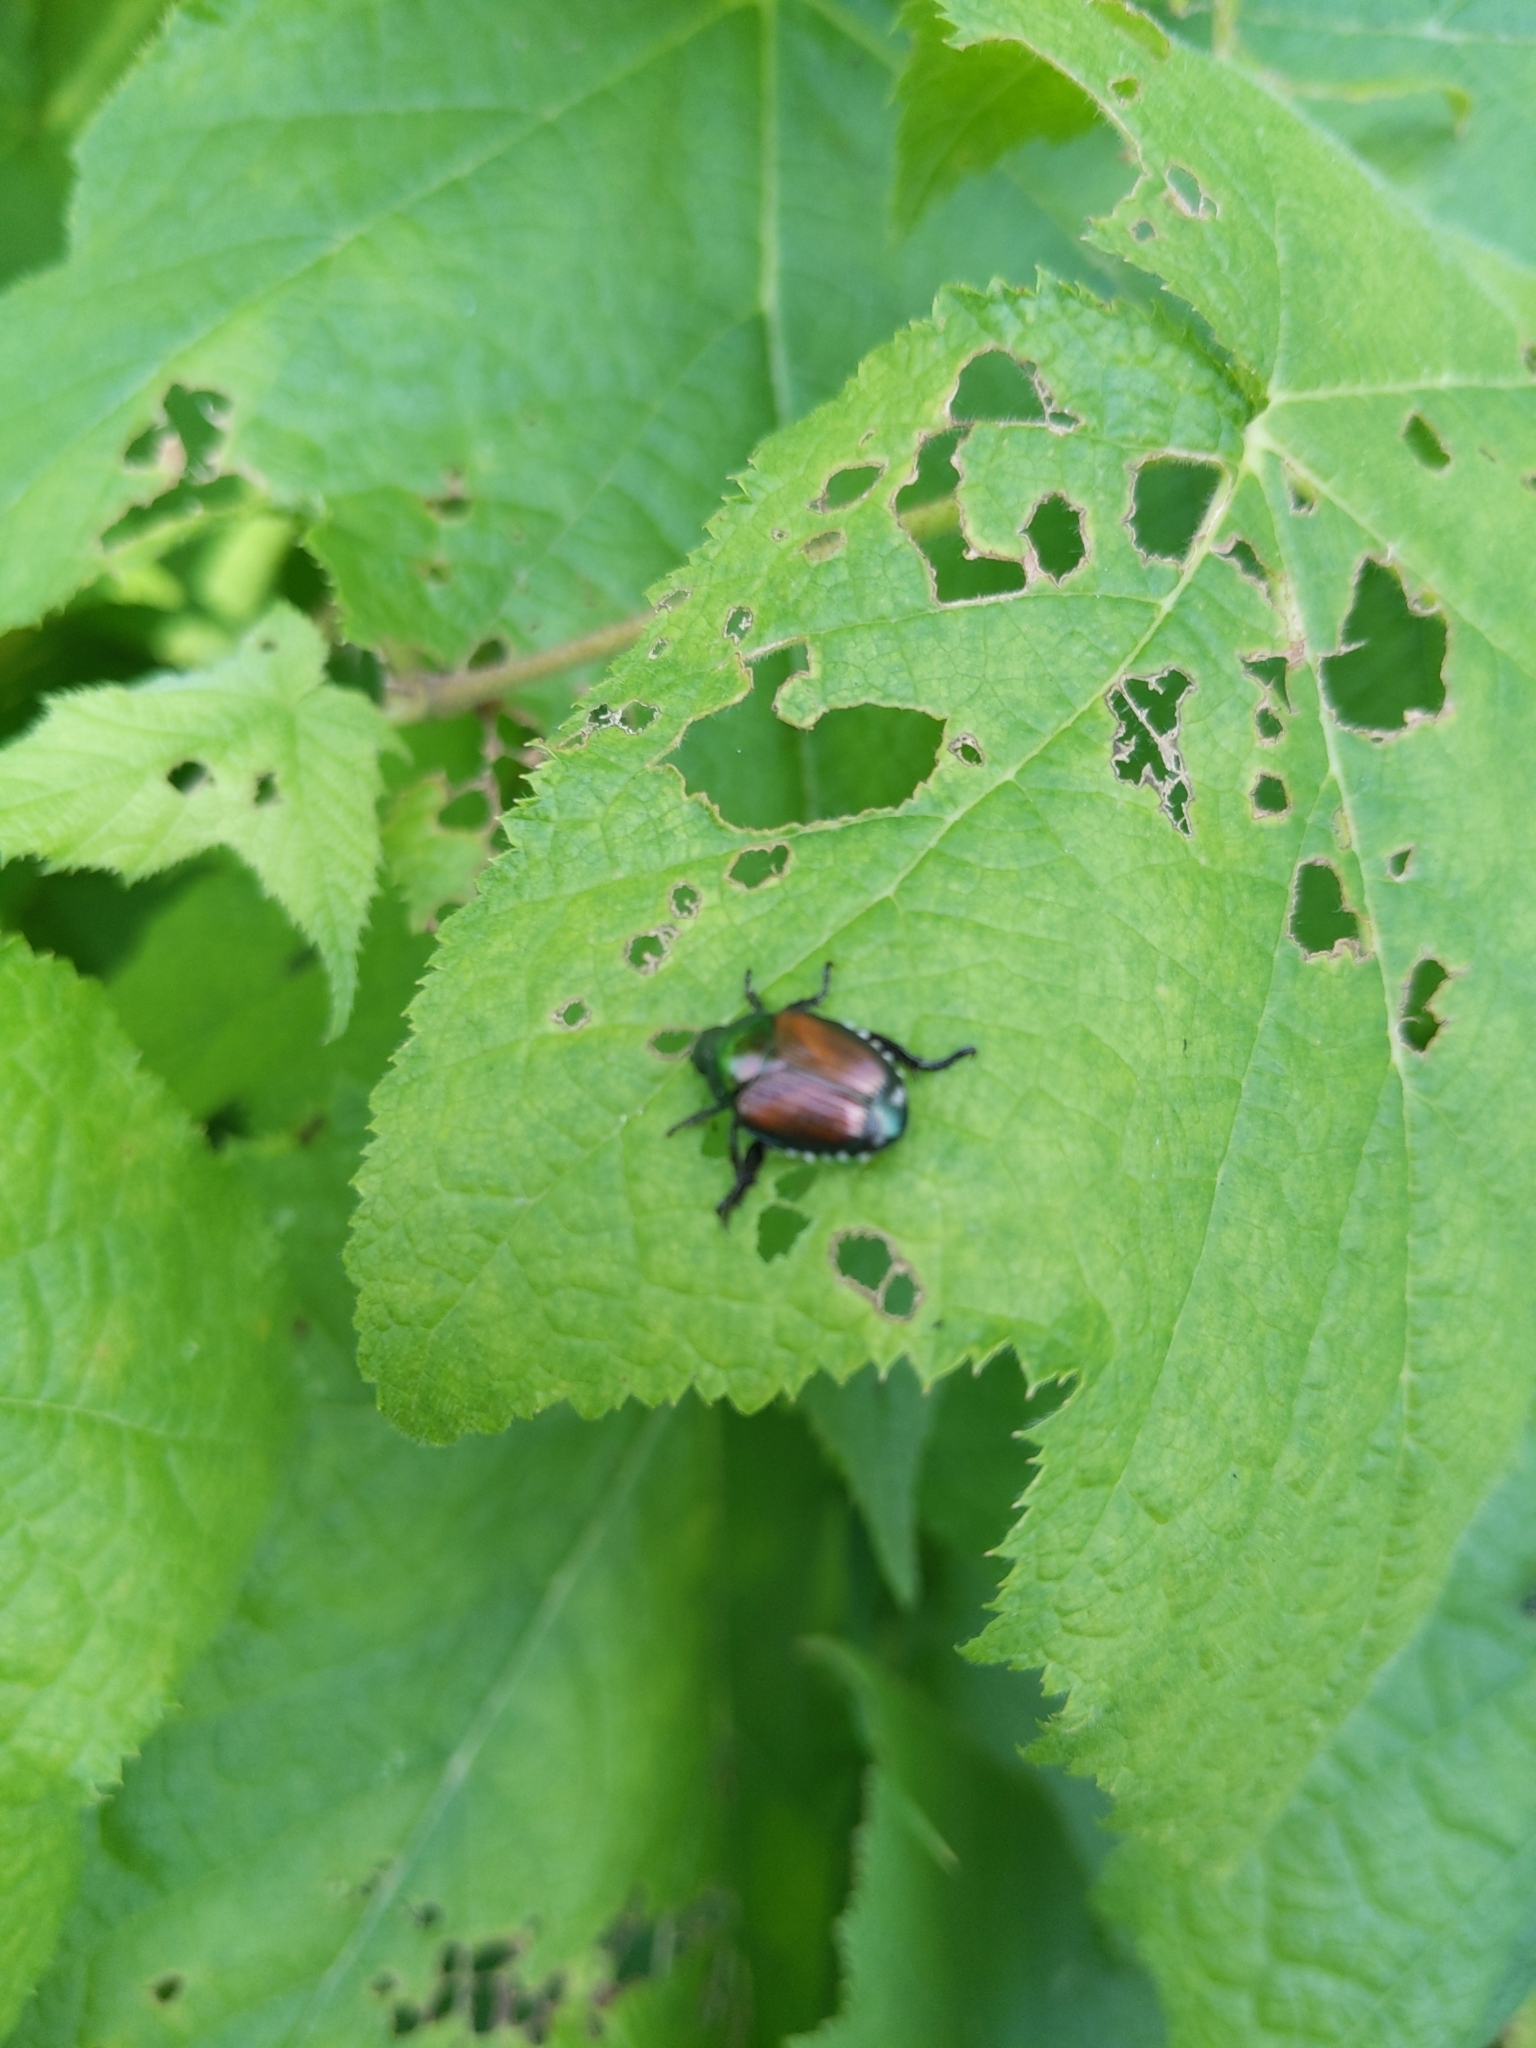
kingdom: Animalia
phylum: Arthropoda
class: Insecta
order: Coleoptera
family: Scarabaeidae
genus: Popillia
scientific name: Popillia japonica
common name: Japanese beetle
